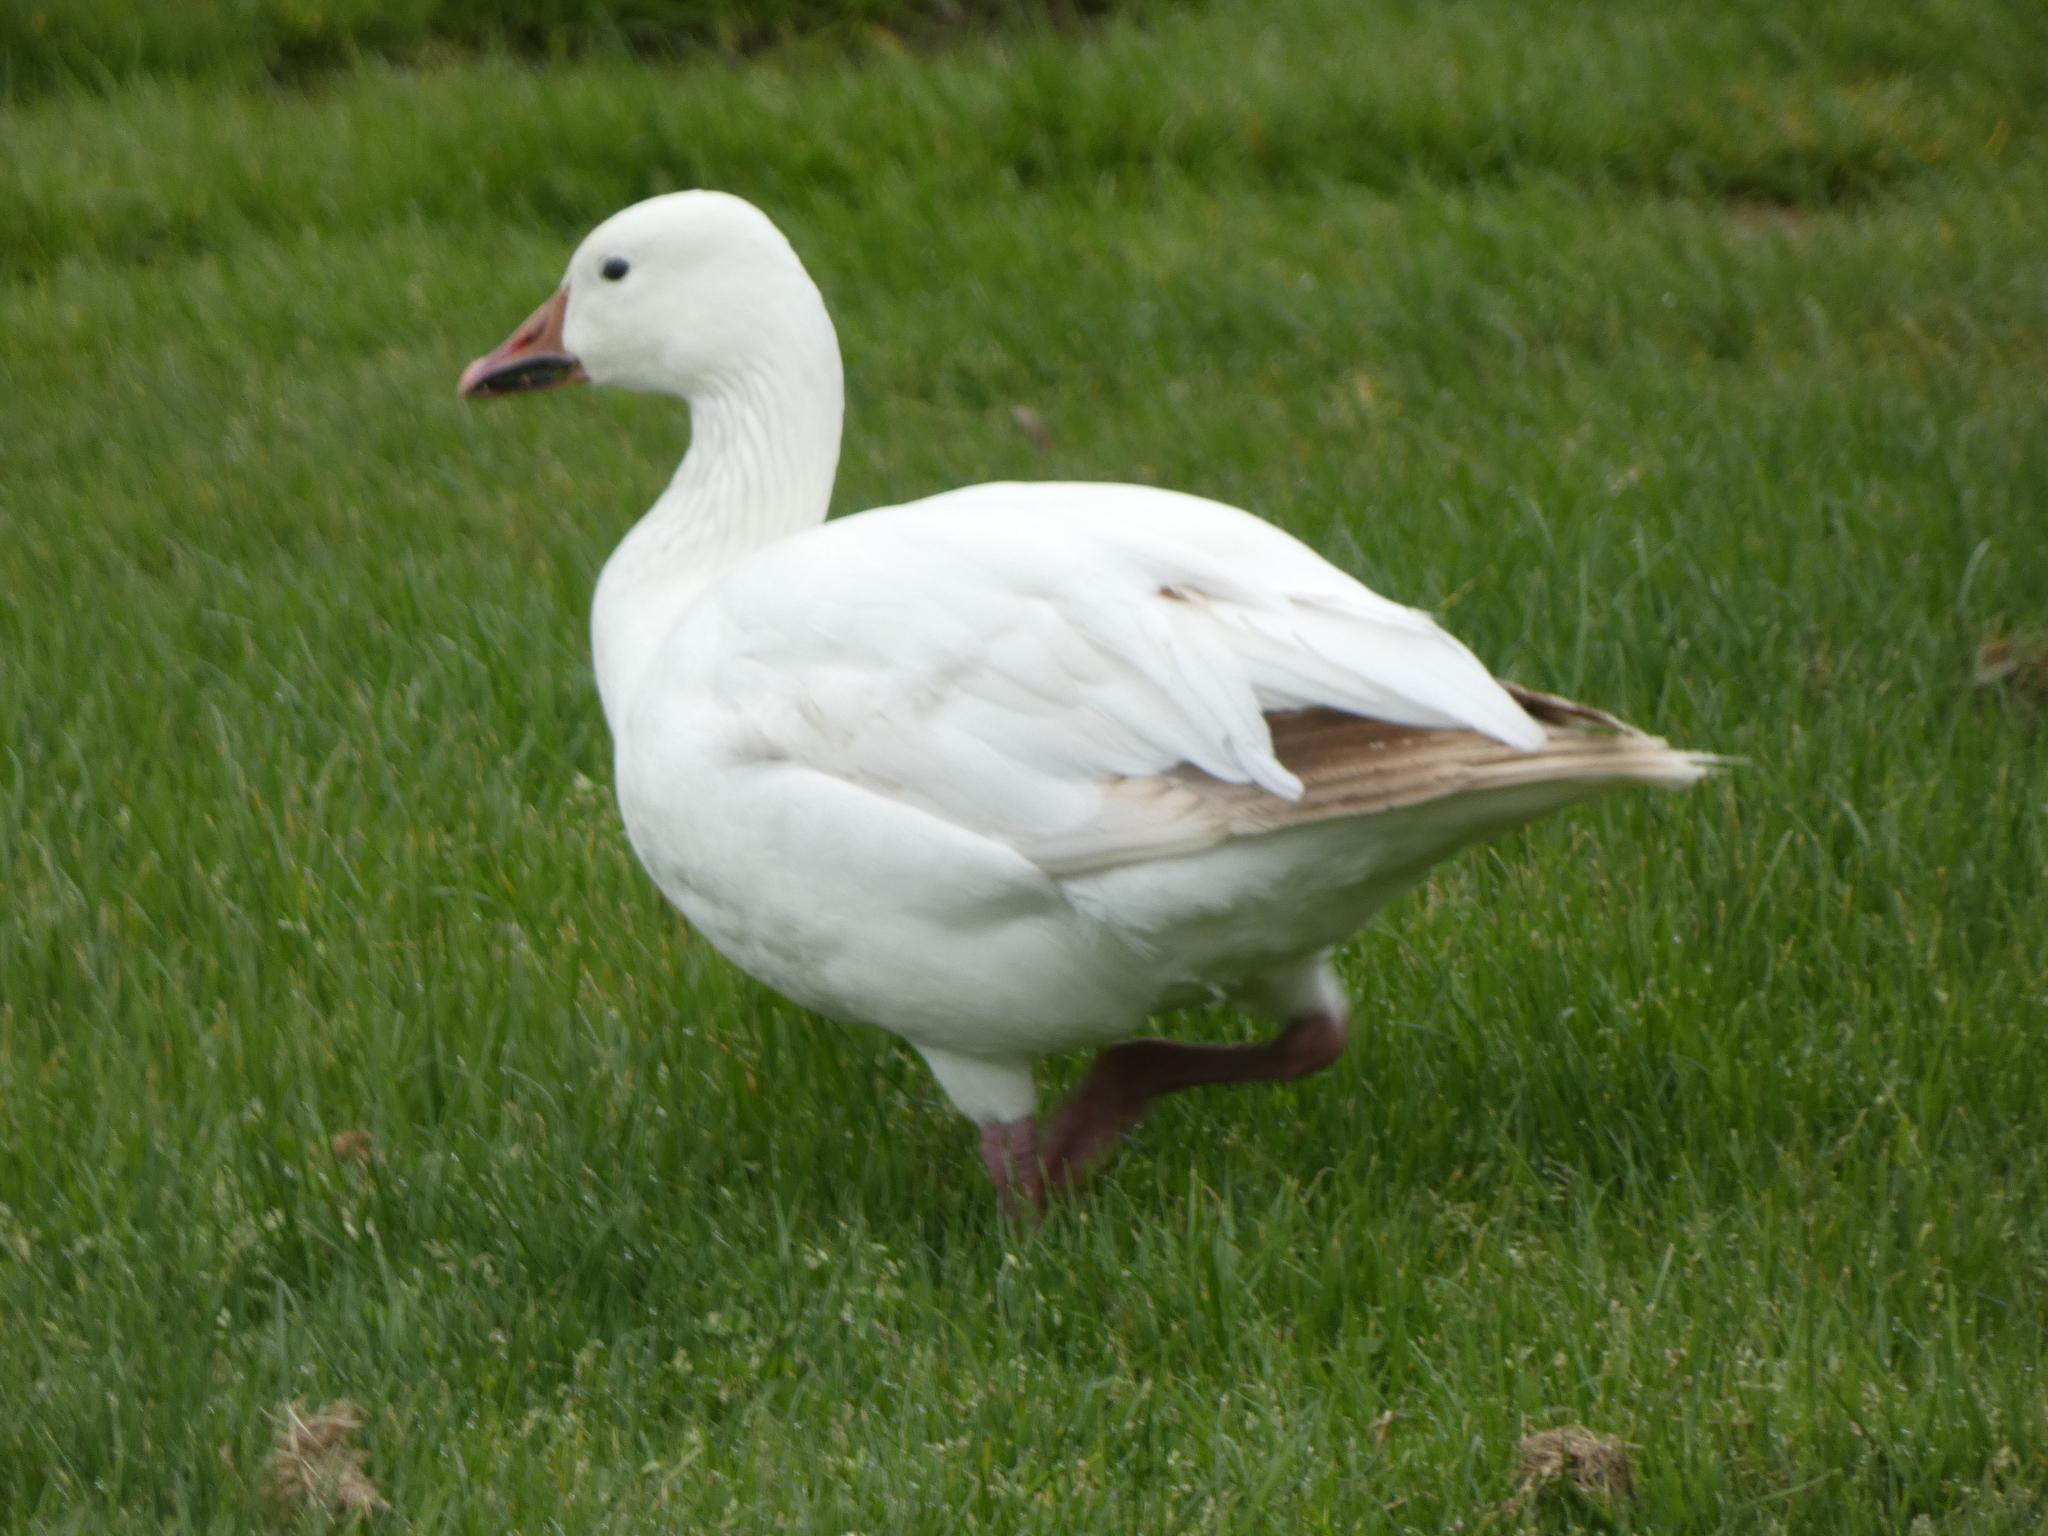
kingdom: Animalia
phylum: Chordata
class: Aves
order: Anseriformes
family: Anatidae
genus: Anser
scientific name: Anser caerulescens
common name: Snow goose
